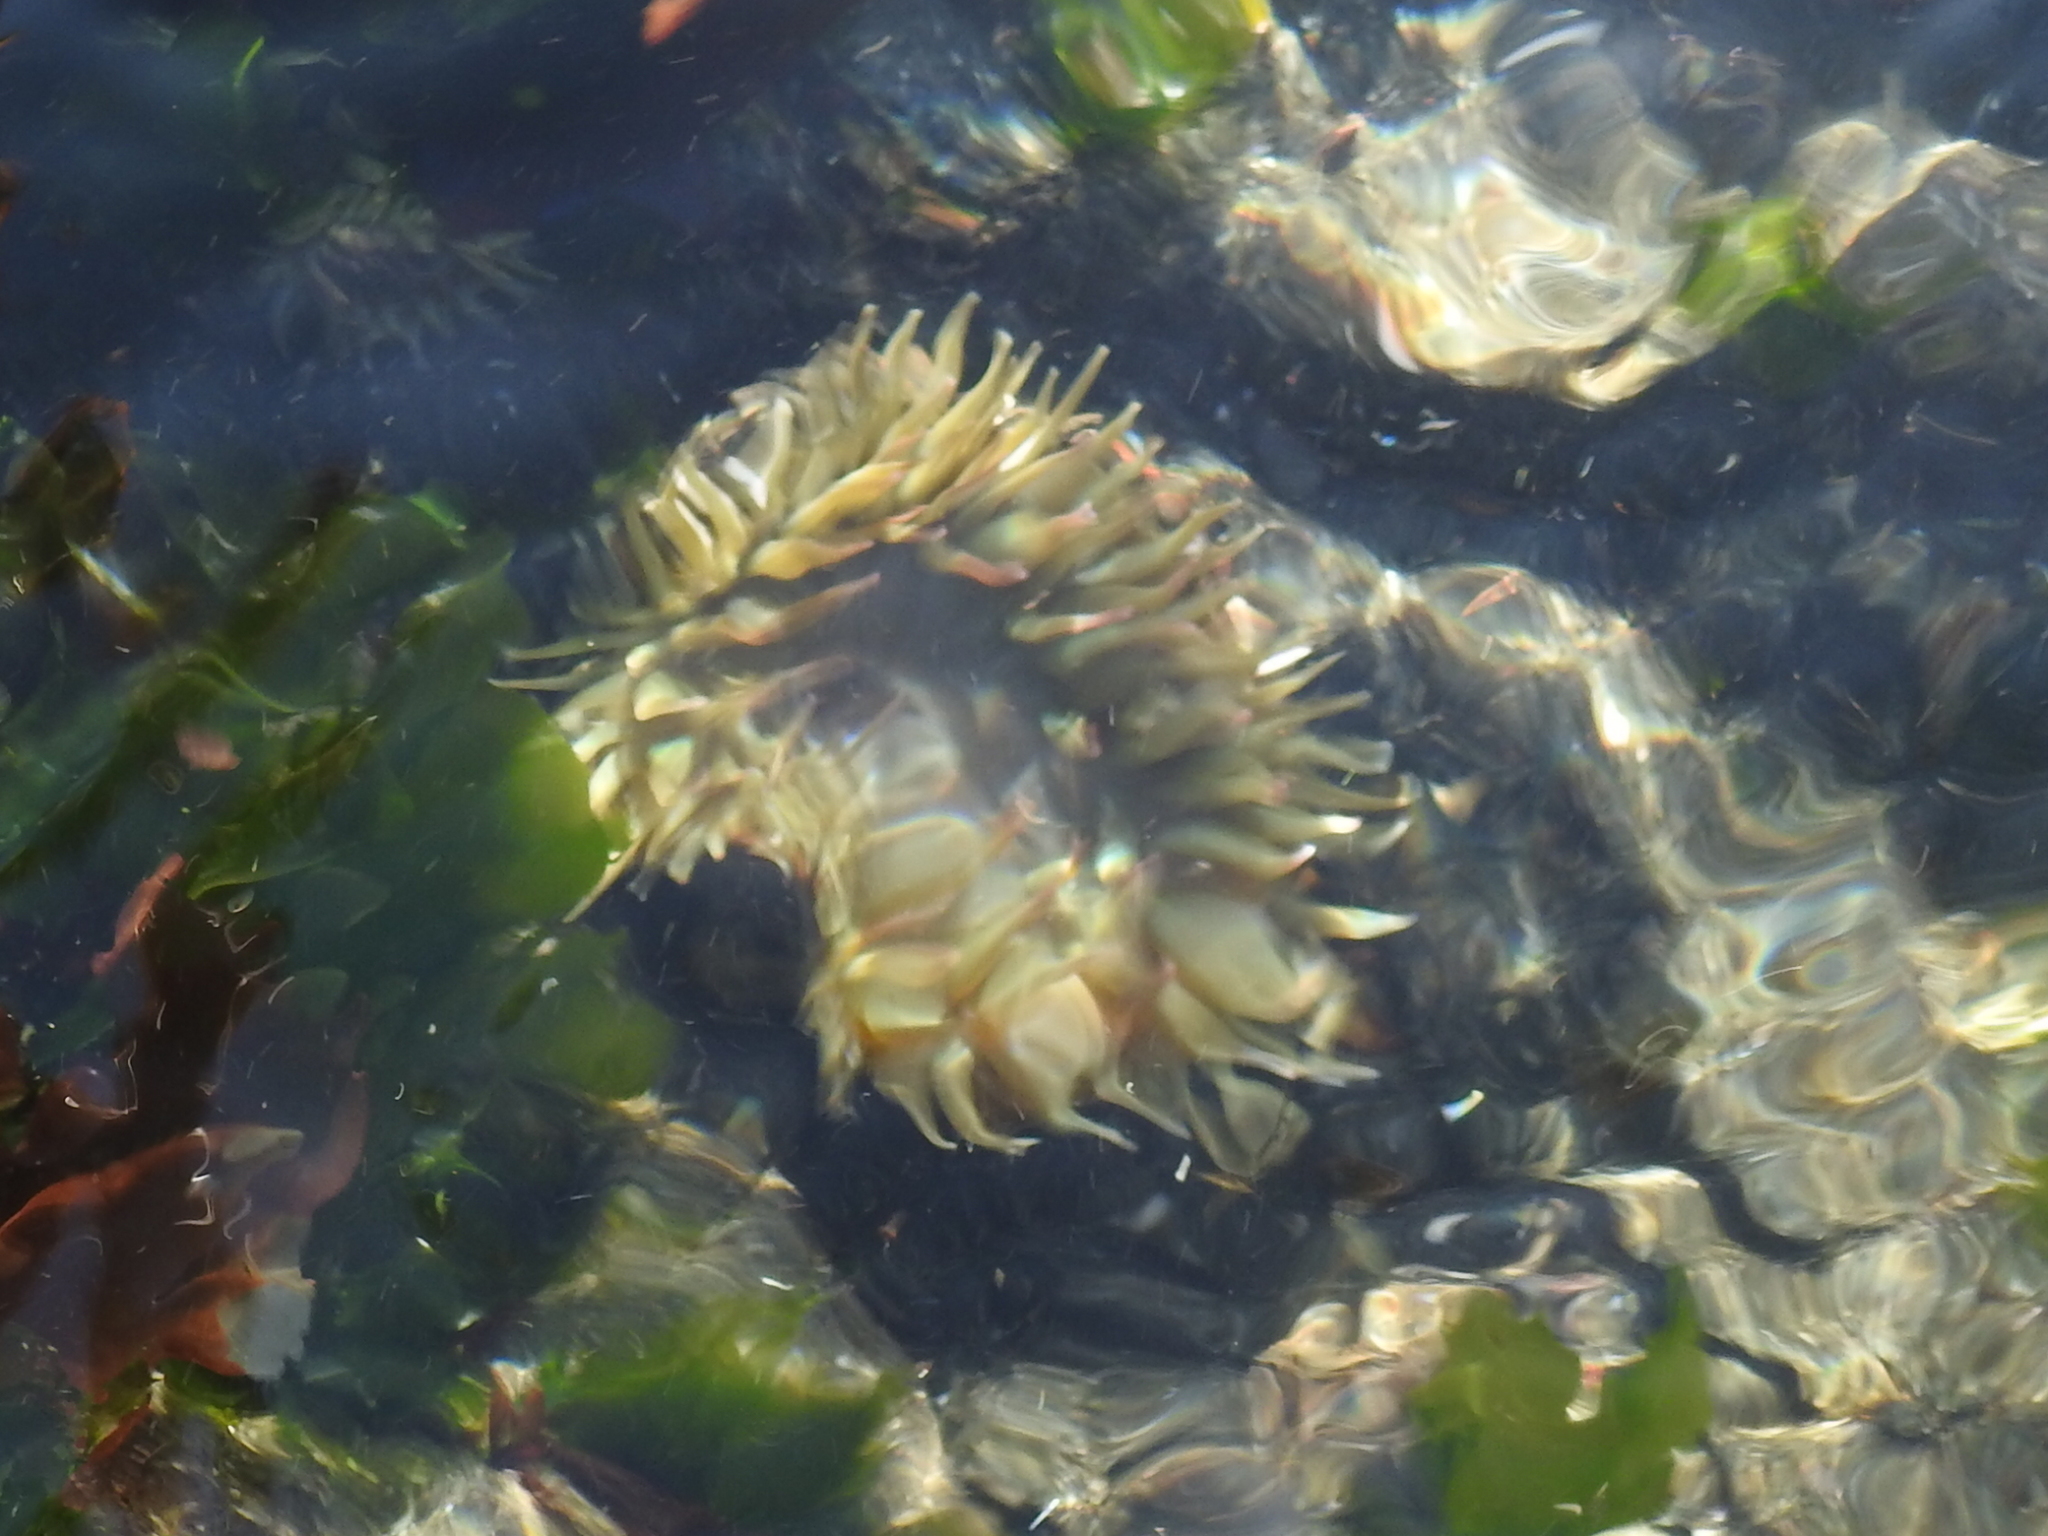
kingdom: Animalia
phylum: Cnidaria
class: Anthozoa
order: Actiniaria
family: Actiniidae
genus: Anthopleura
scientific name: Anthopleura elegantissima
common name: Clonal anemone
